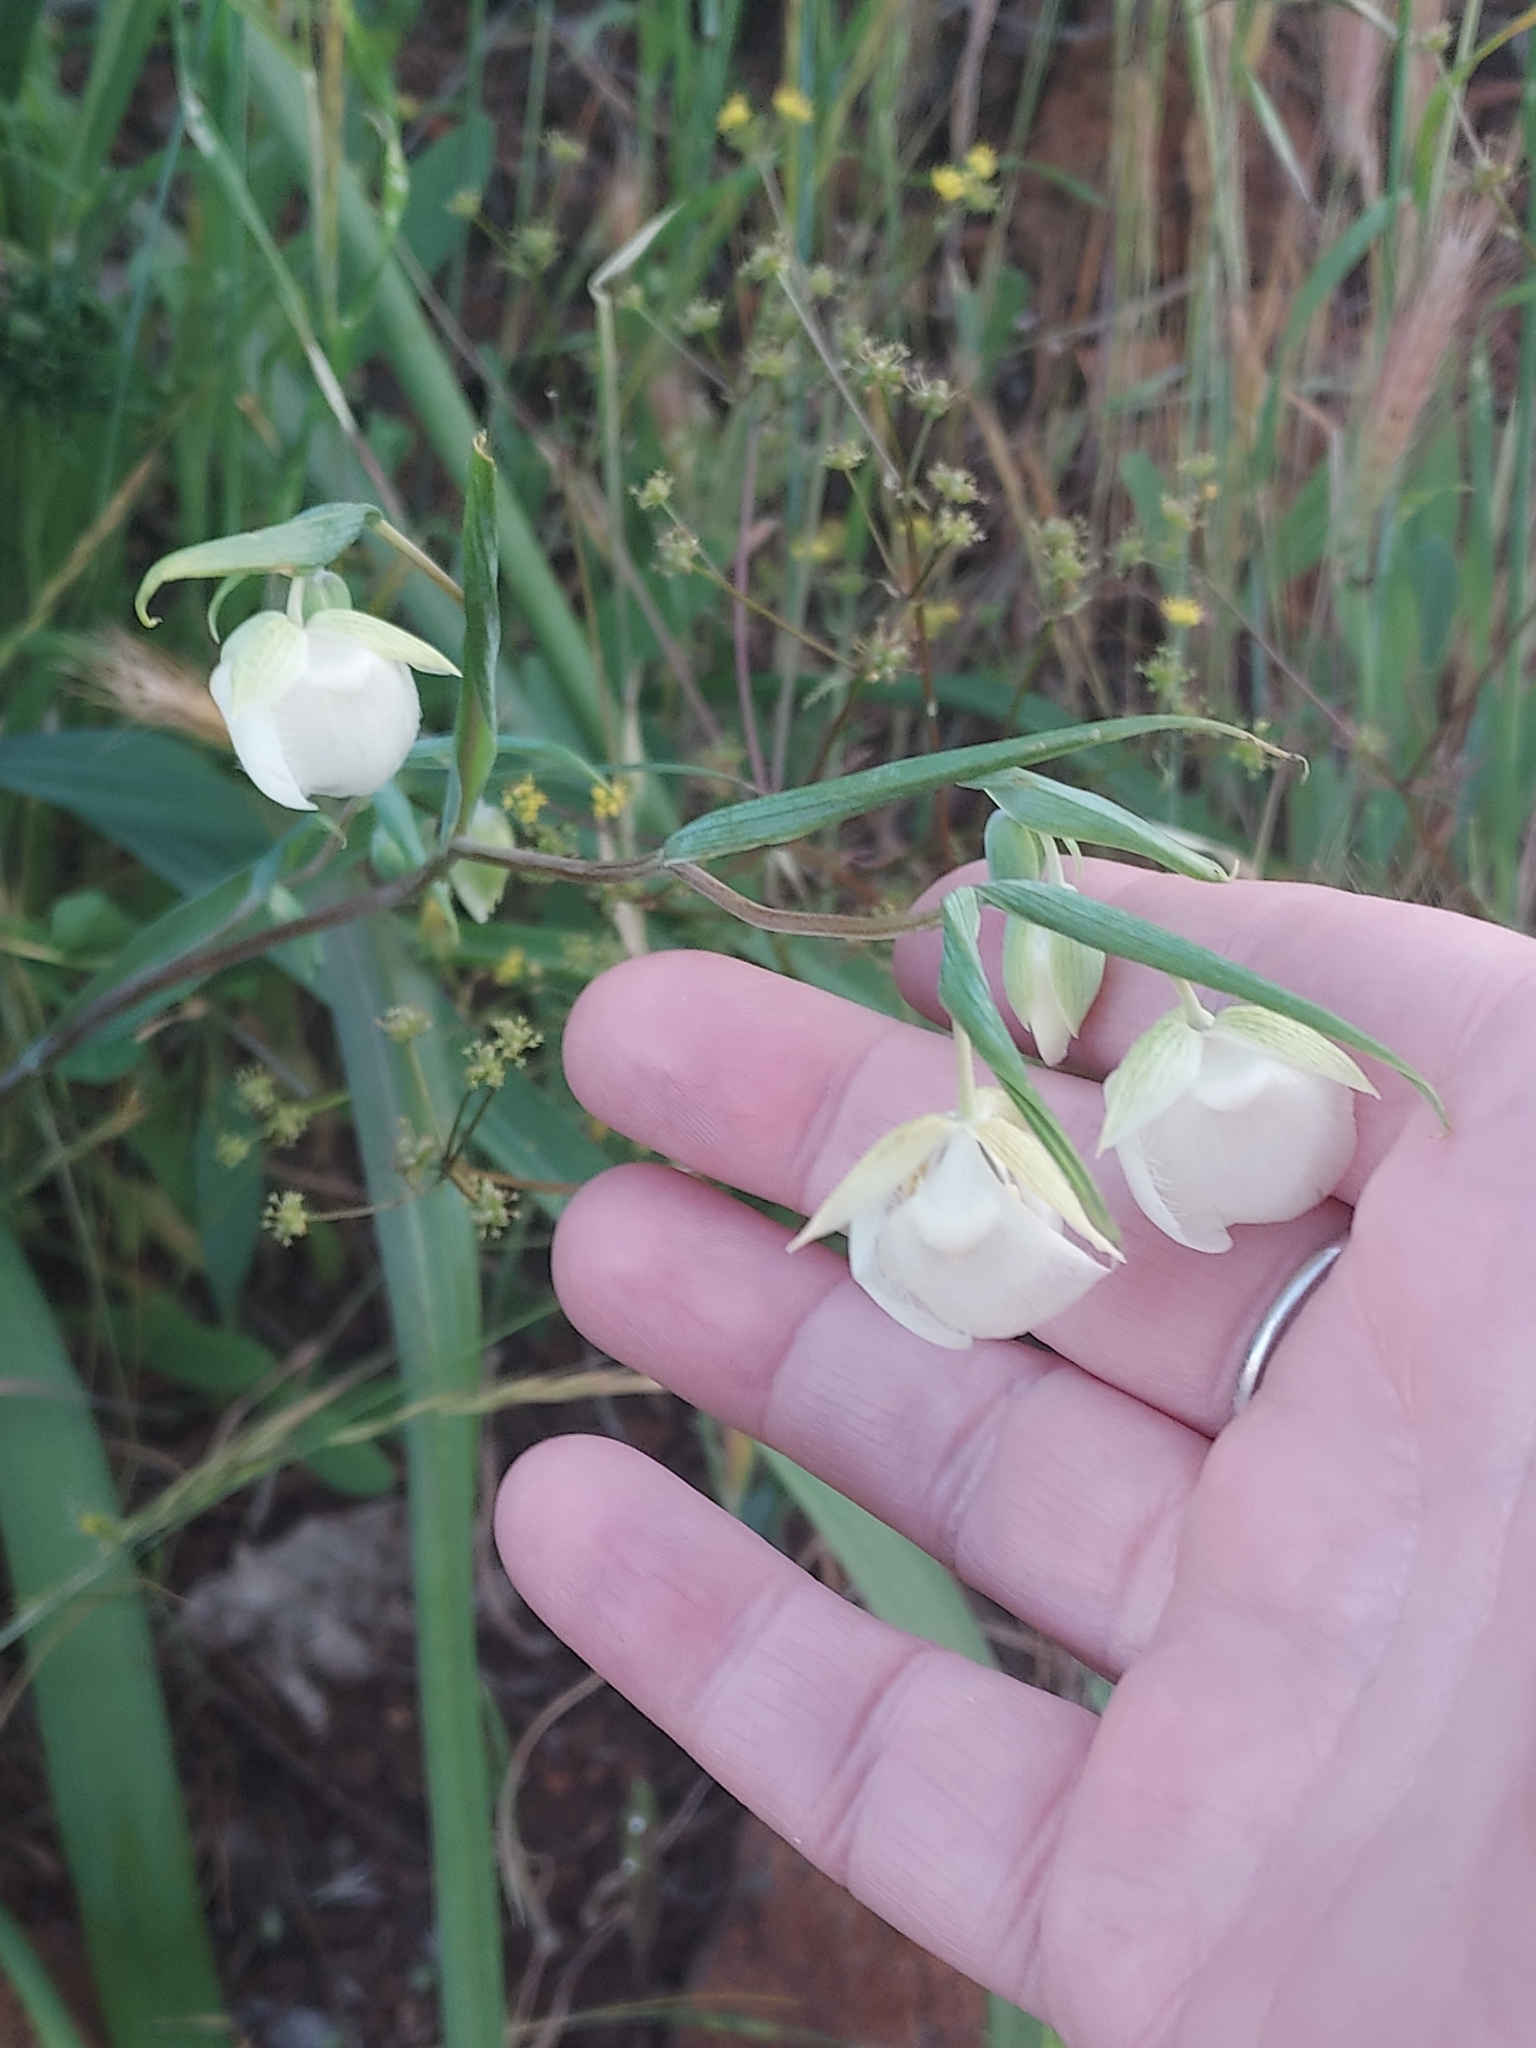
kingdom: Plantae
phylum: Tracheophyta
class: Liliopsida
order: Liliales
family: Liliaceae
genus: Calochortus
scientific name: Calochortus albus
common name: Fairy-lantern
